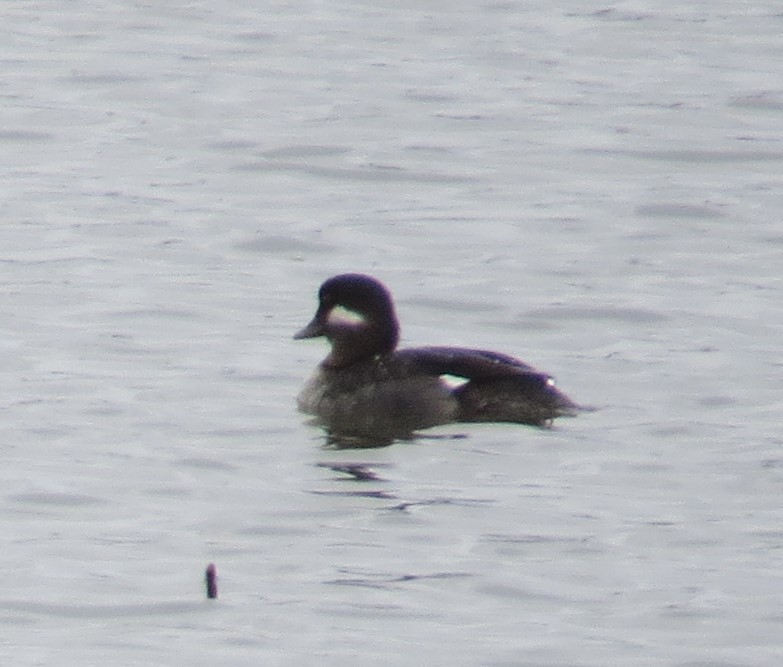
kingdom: Animalia
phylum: Chordata
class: Aves
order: Anseriformes
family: Anatidae
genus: Bucephala
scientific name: Bucephala albeola
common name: Bufflehead
